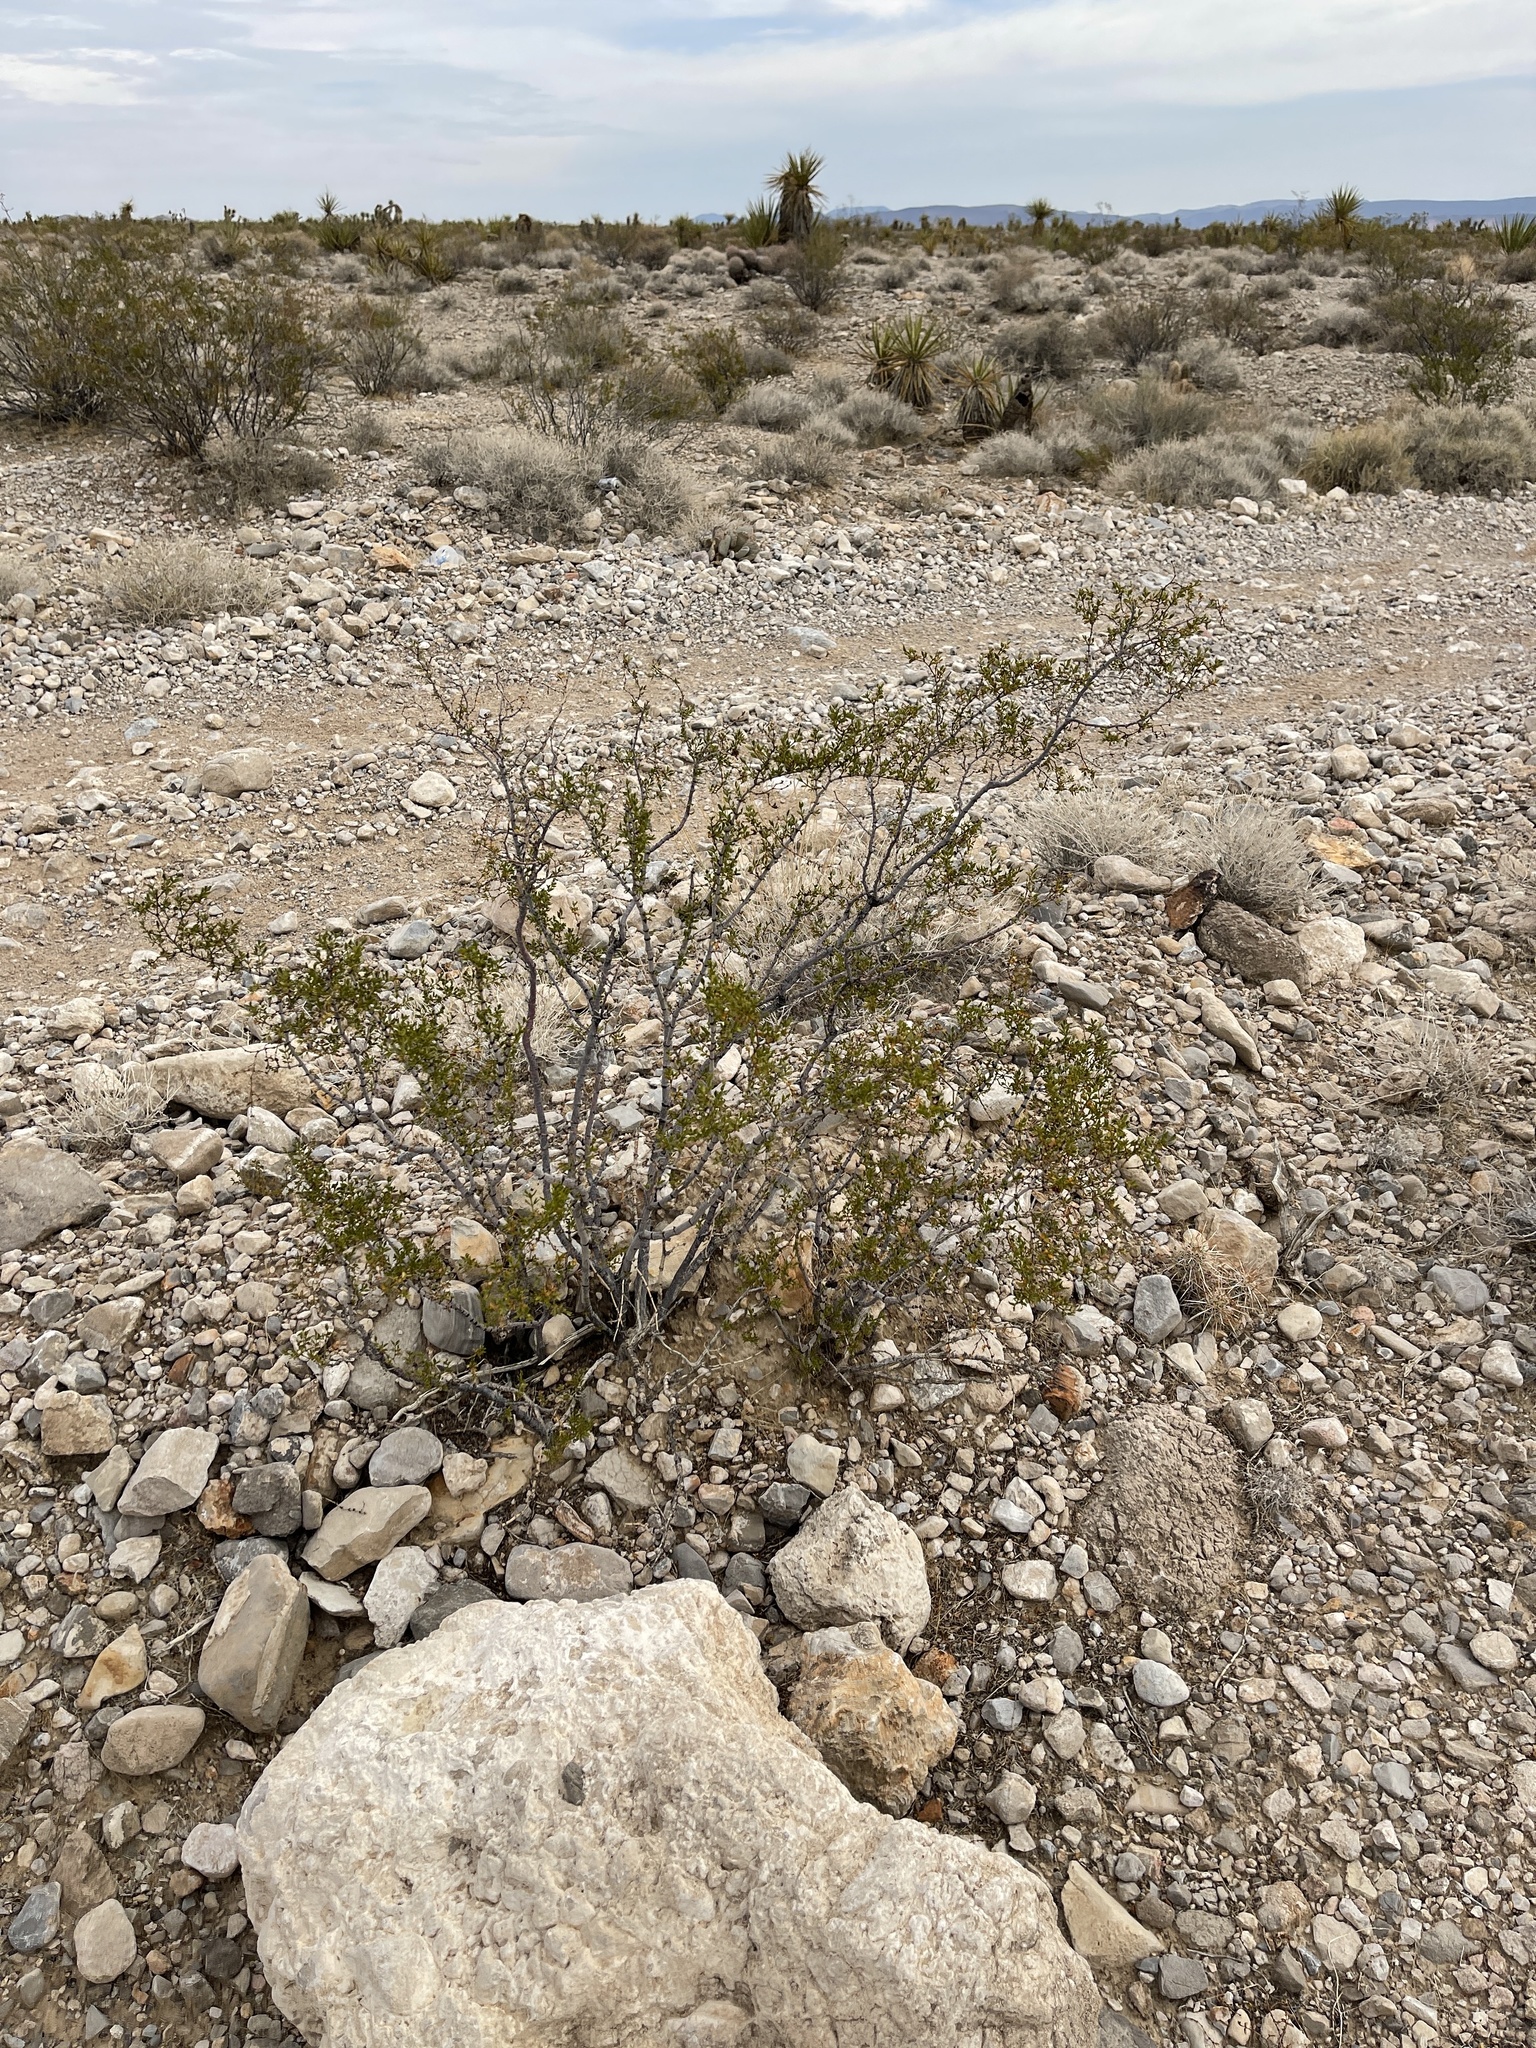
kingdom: Plantae
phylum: Tracheophyta
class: Magnoliopsida
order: Zygophyllales
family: Zygophyllaceae
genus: Larrea
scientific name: Larrea tridentata
